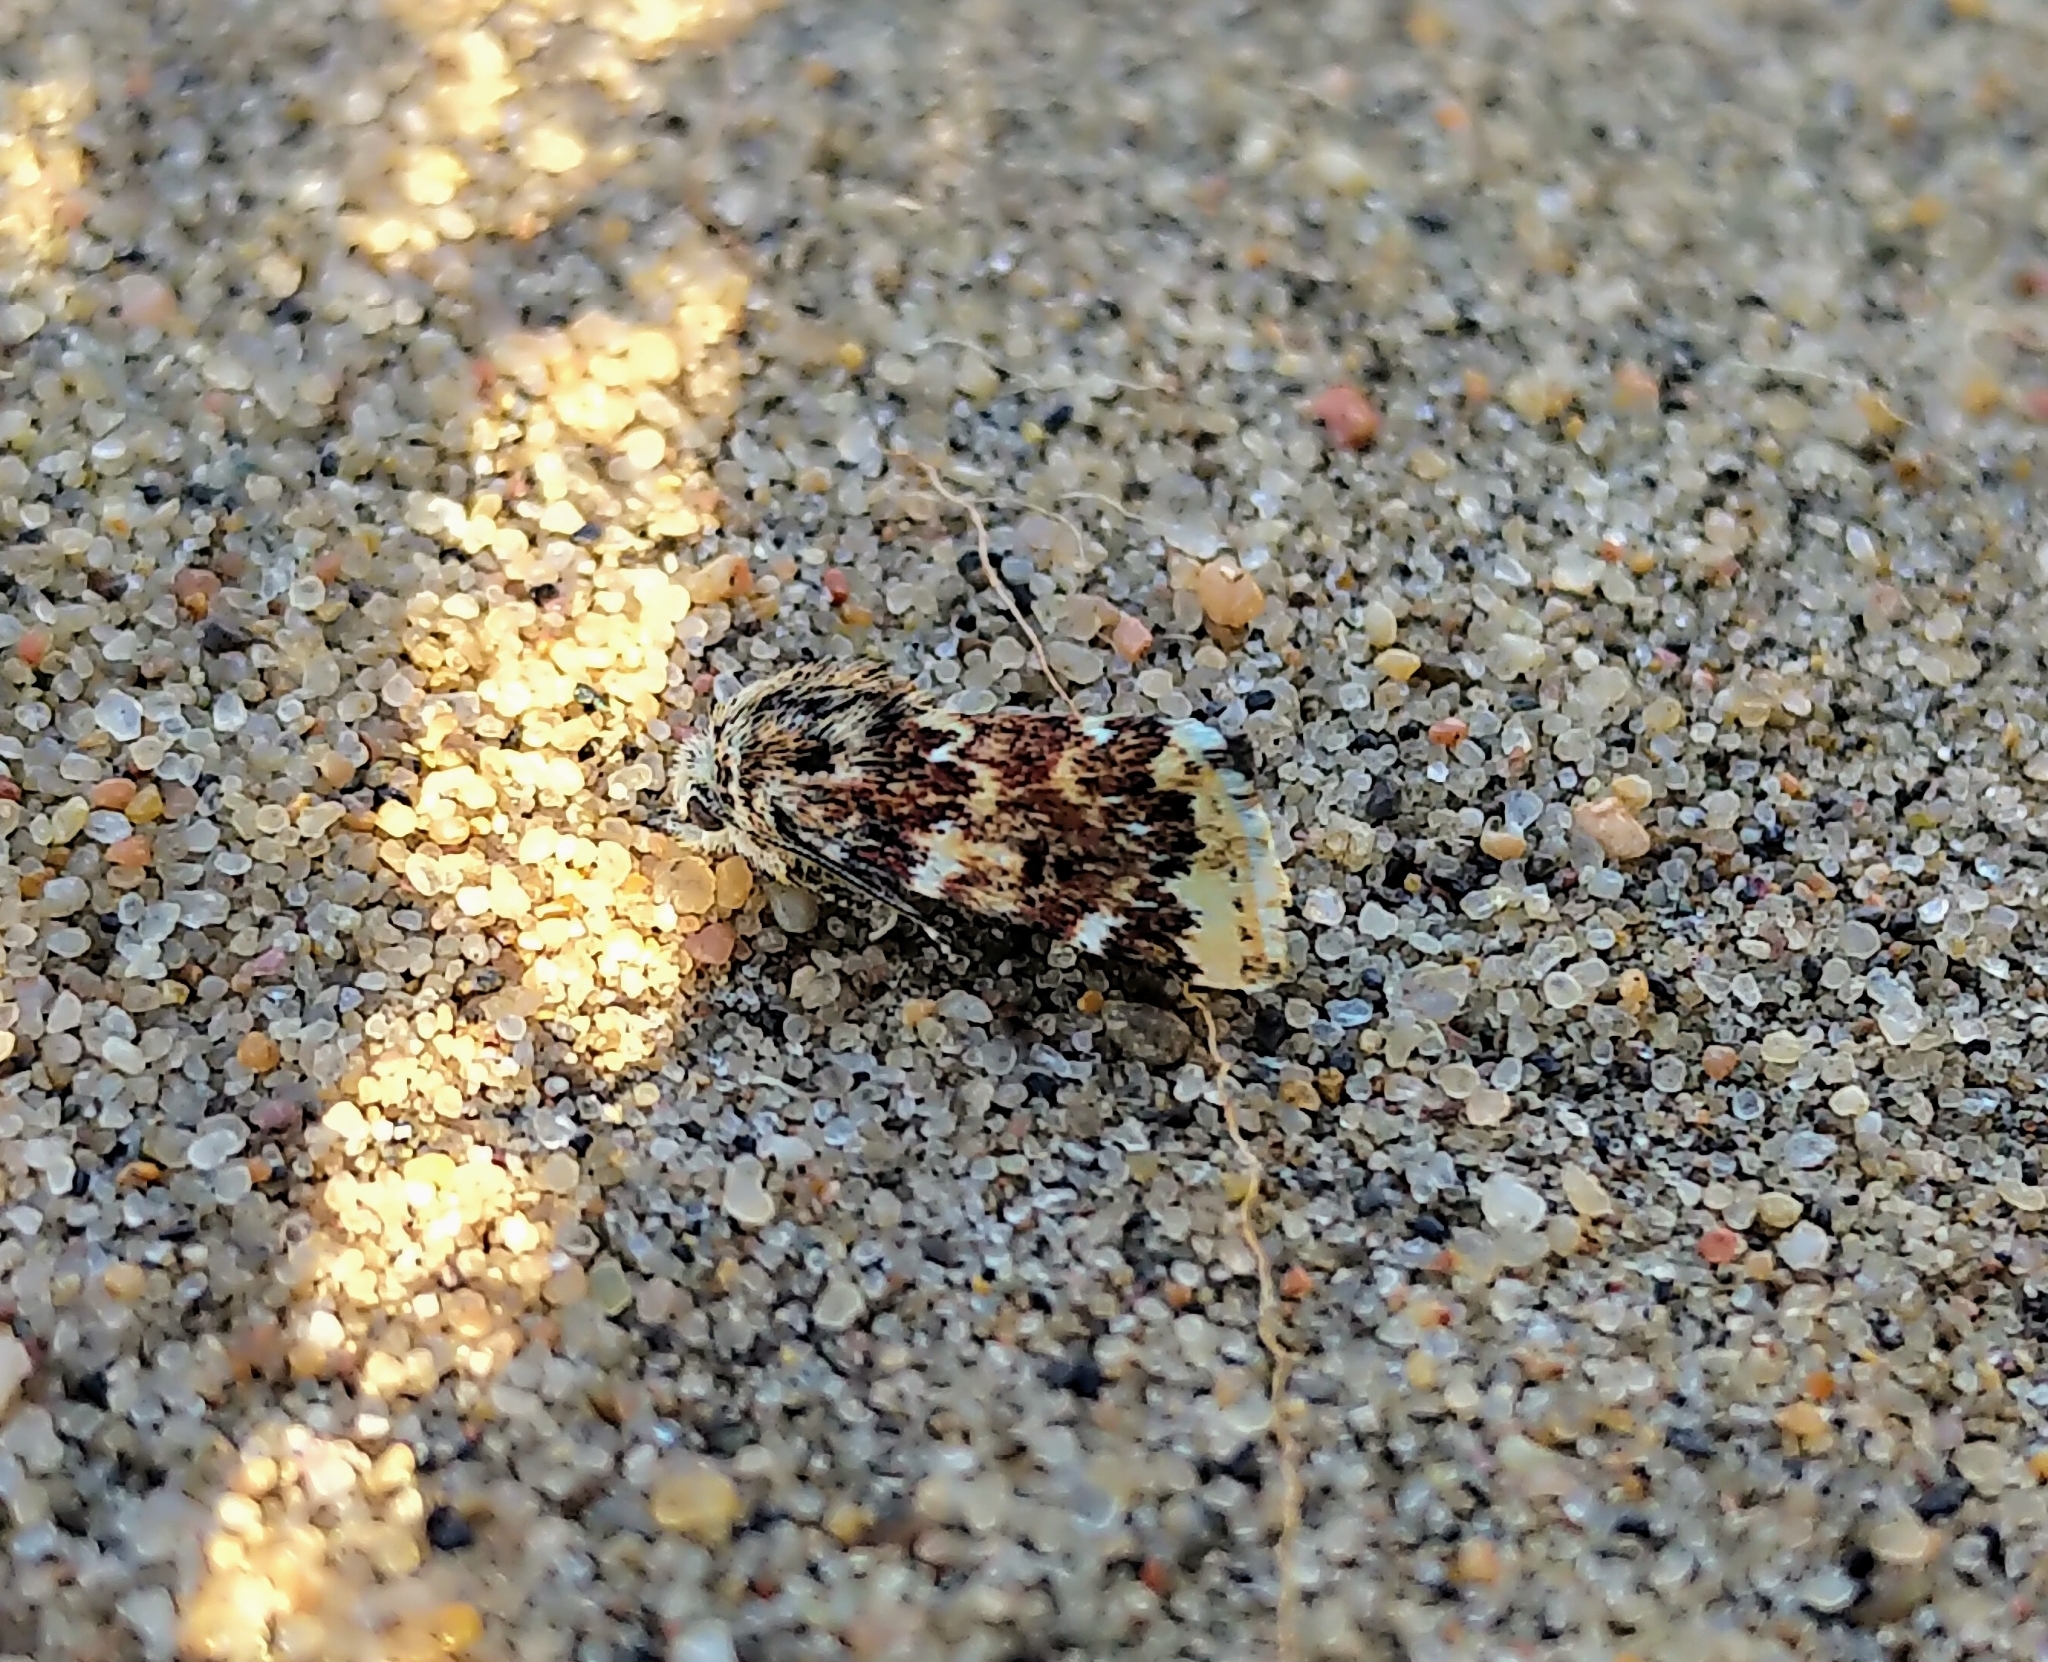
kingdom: Animalia
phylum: Arthropoda
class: Insecta
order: Lepidoptera
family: Noctuidae
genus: Schinia
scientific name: Schinia avemensis
